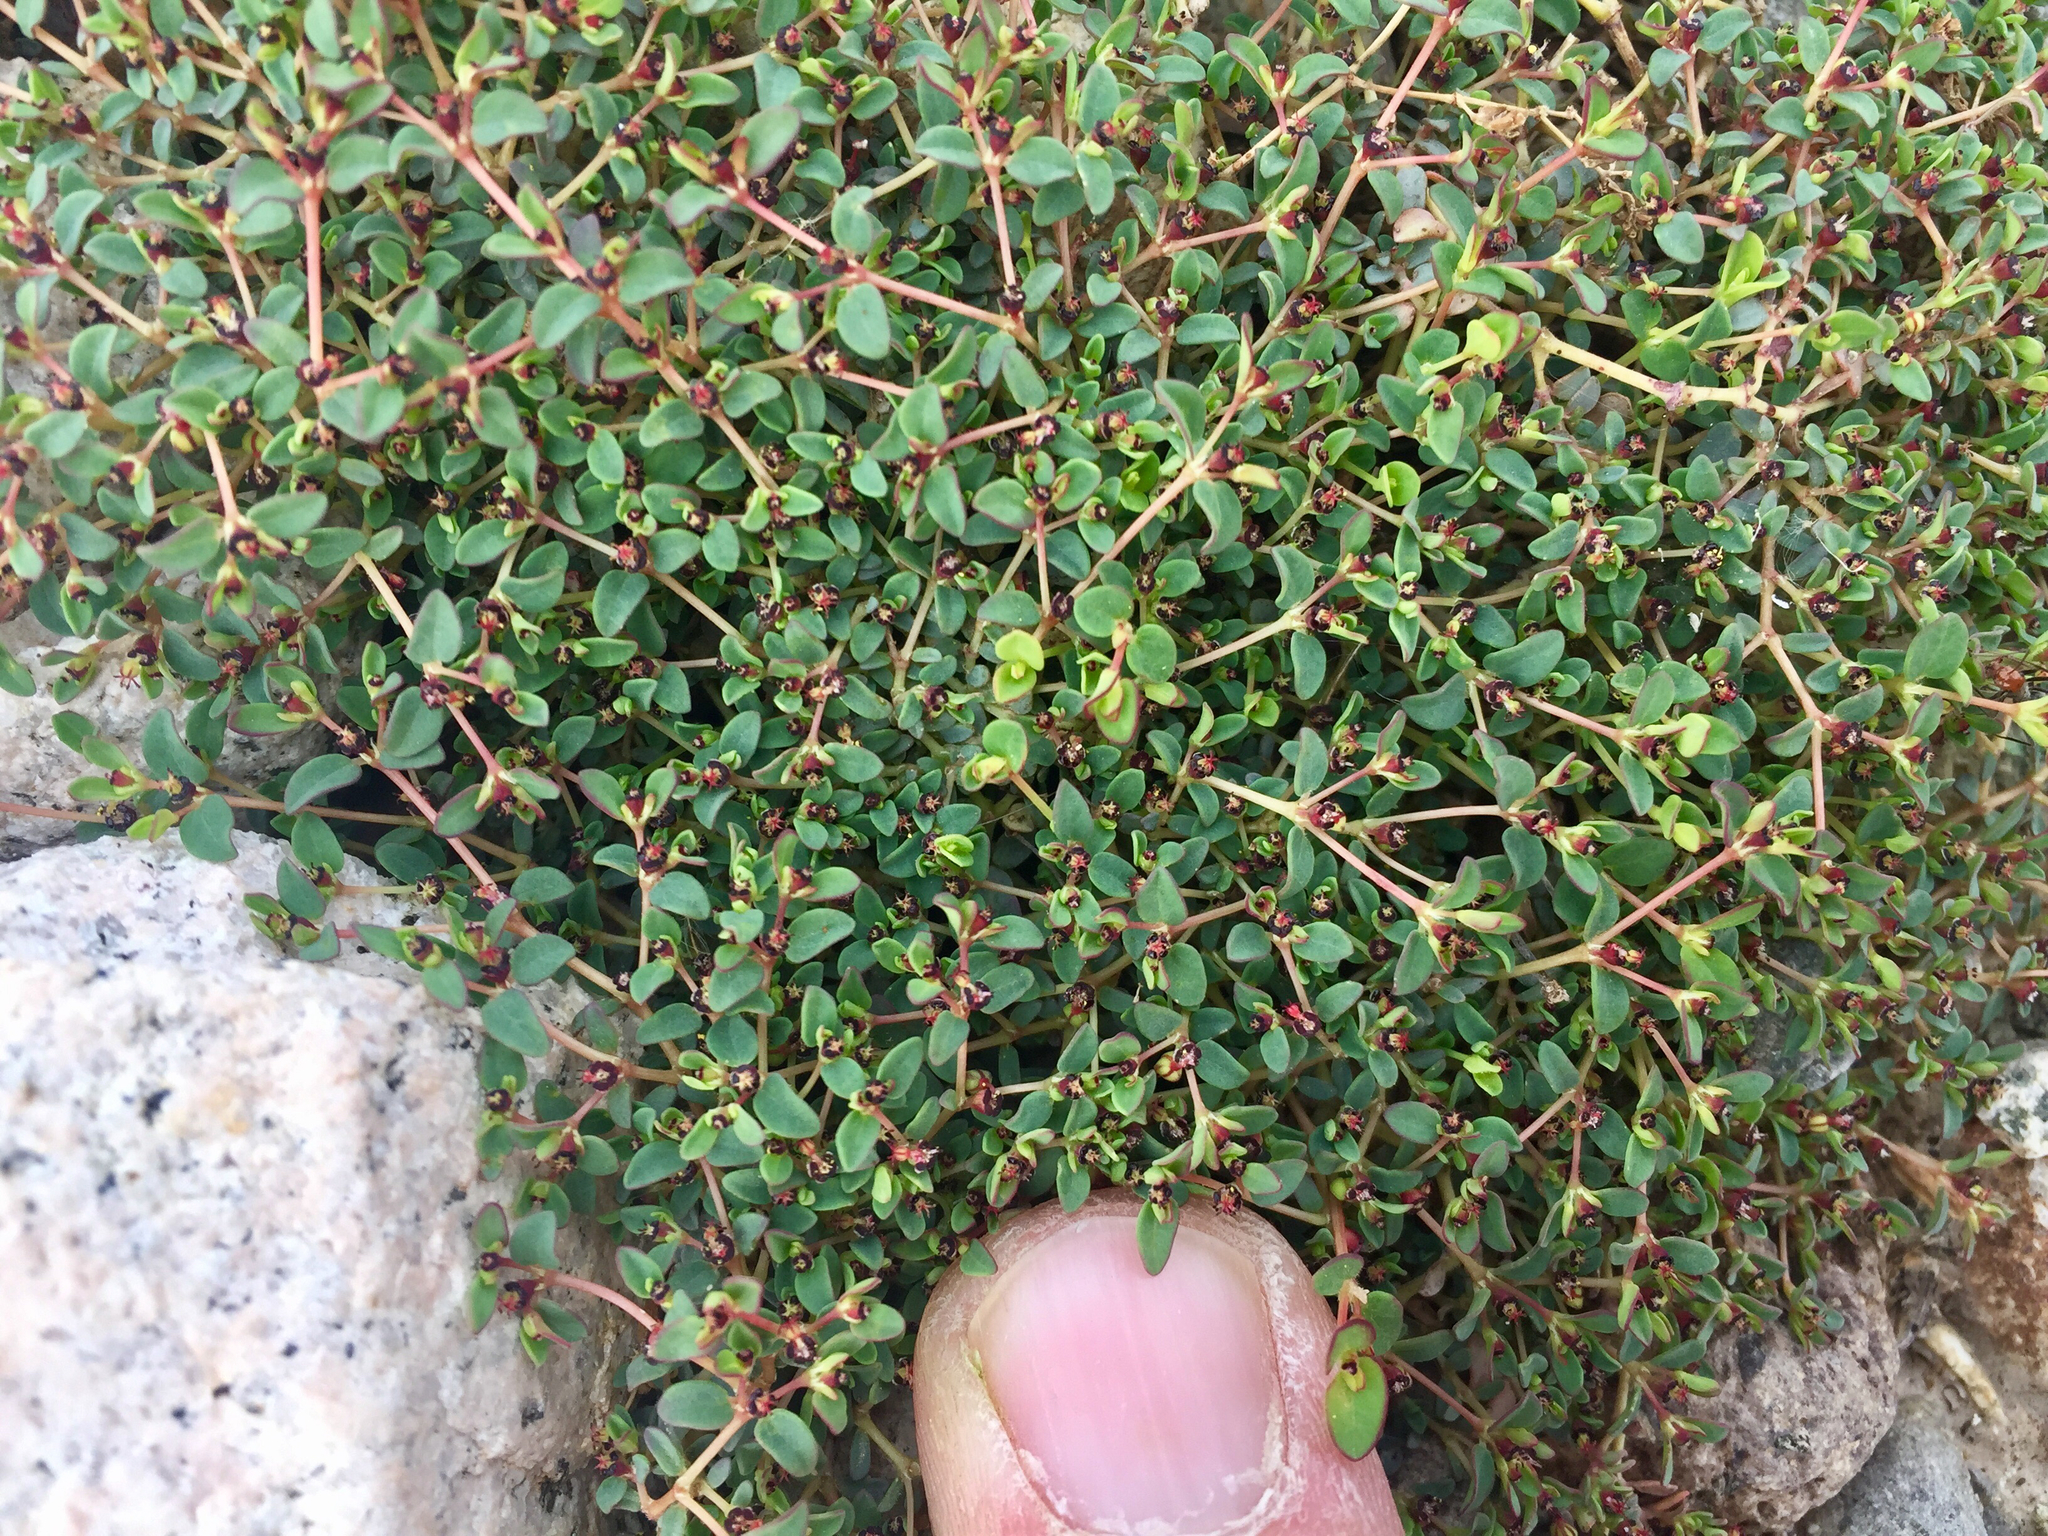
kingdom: Plantae
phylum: Tracheophyta
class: Magnoliopsida
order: Malpighiales
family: Euphorbiaceae
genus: Euphorbia
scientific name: Euphorbia polycarpa
